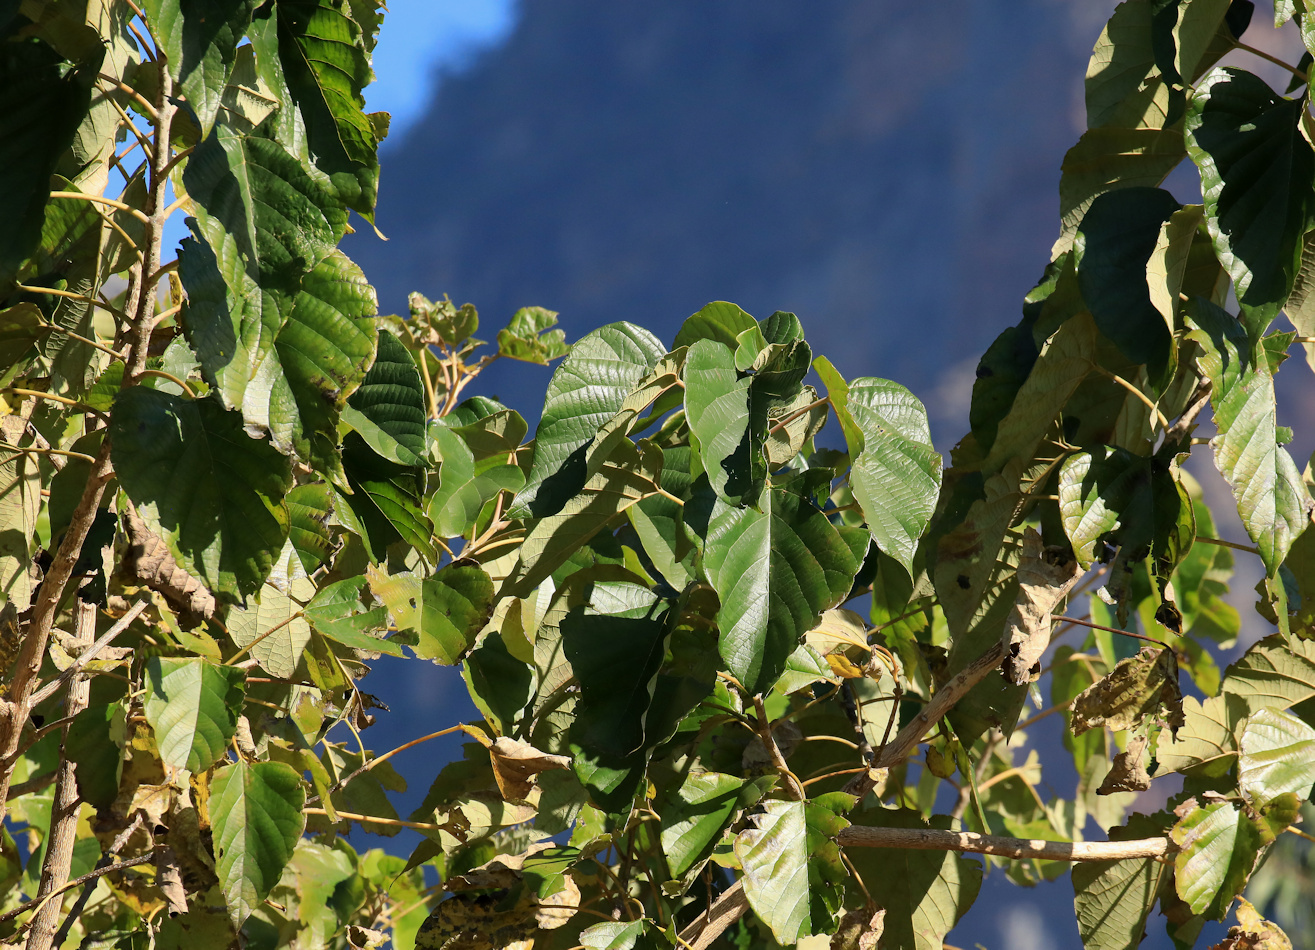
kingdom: Plantae
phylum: Tracheophyta
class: Magnoliopsida
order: Fabales
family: Fabaceae
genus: Flemingia
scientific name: Flemingia grahamiana
